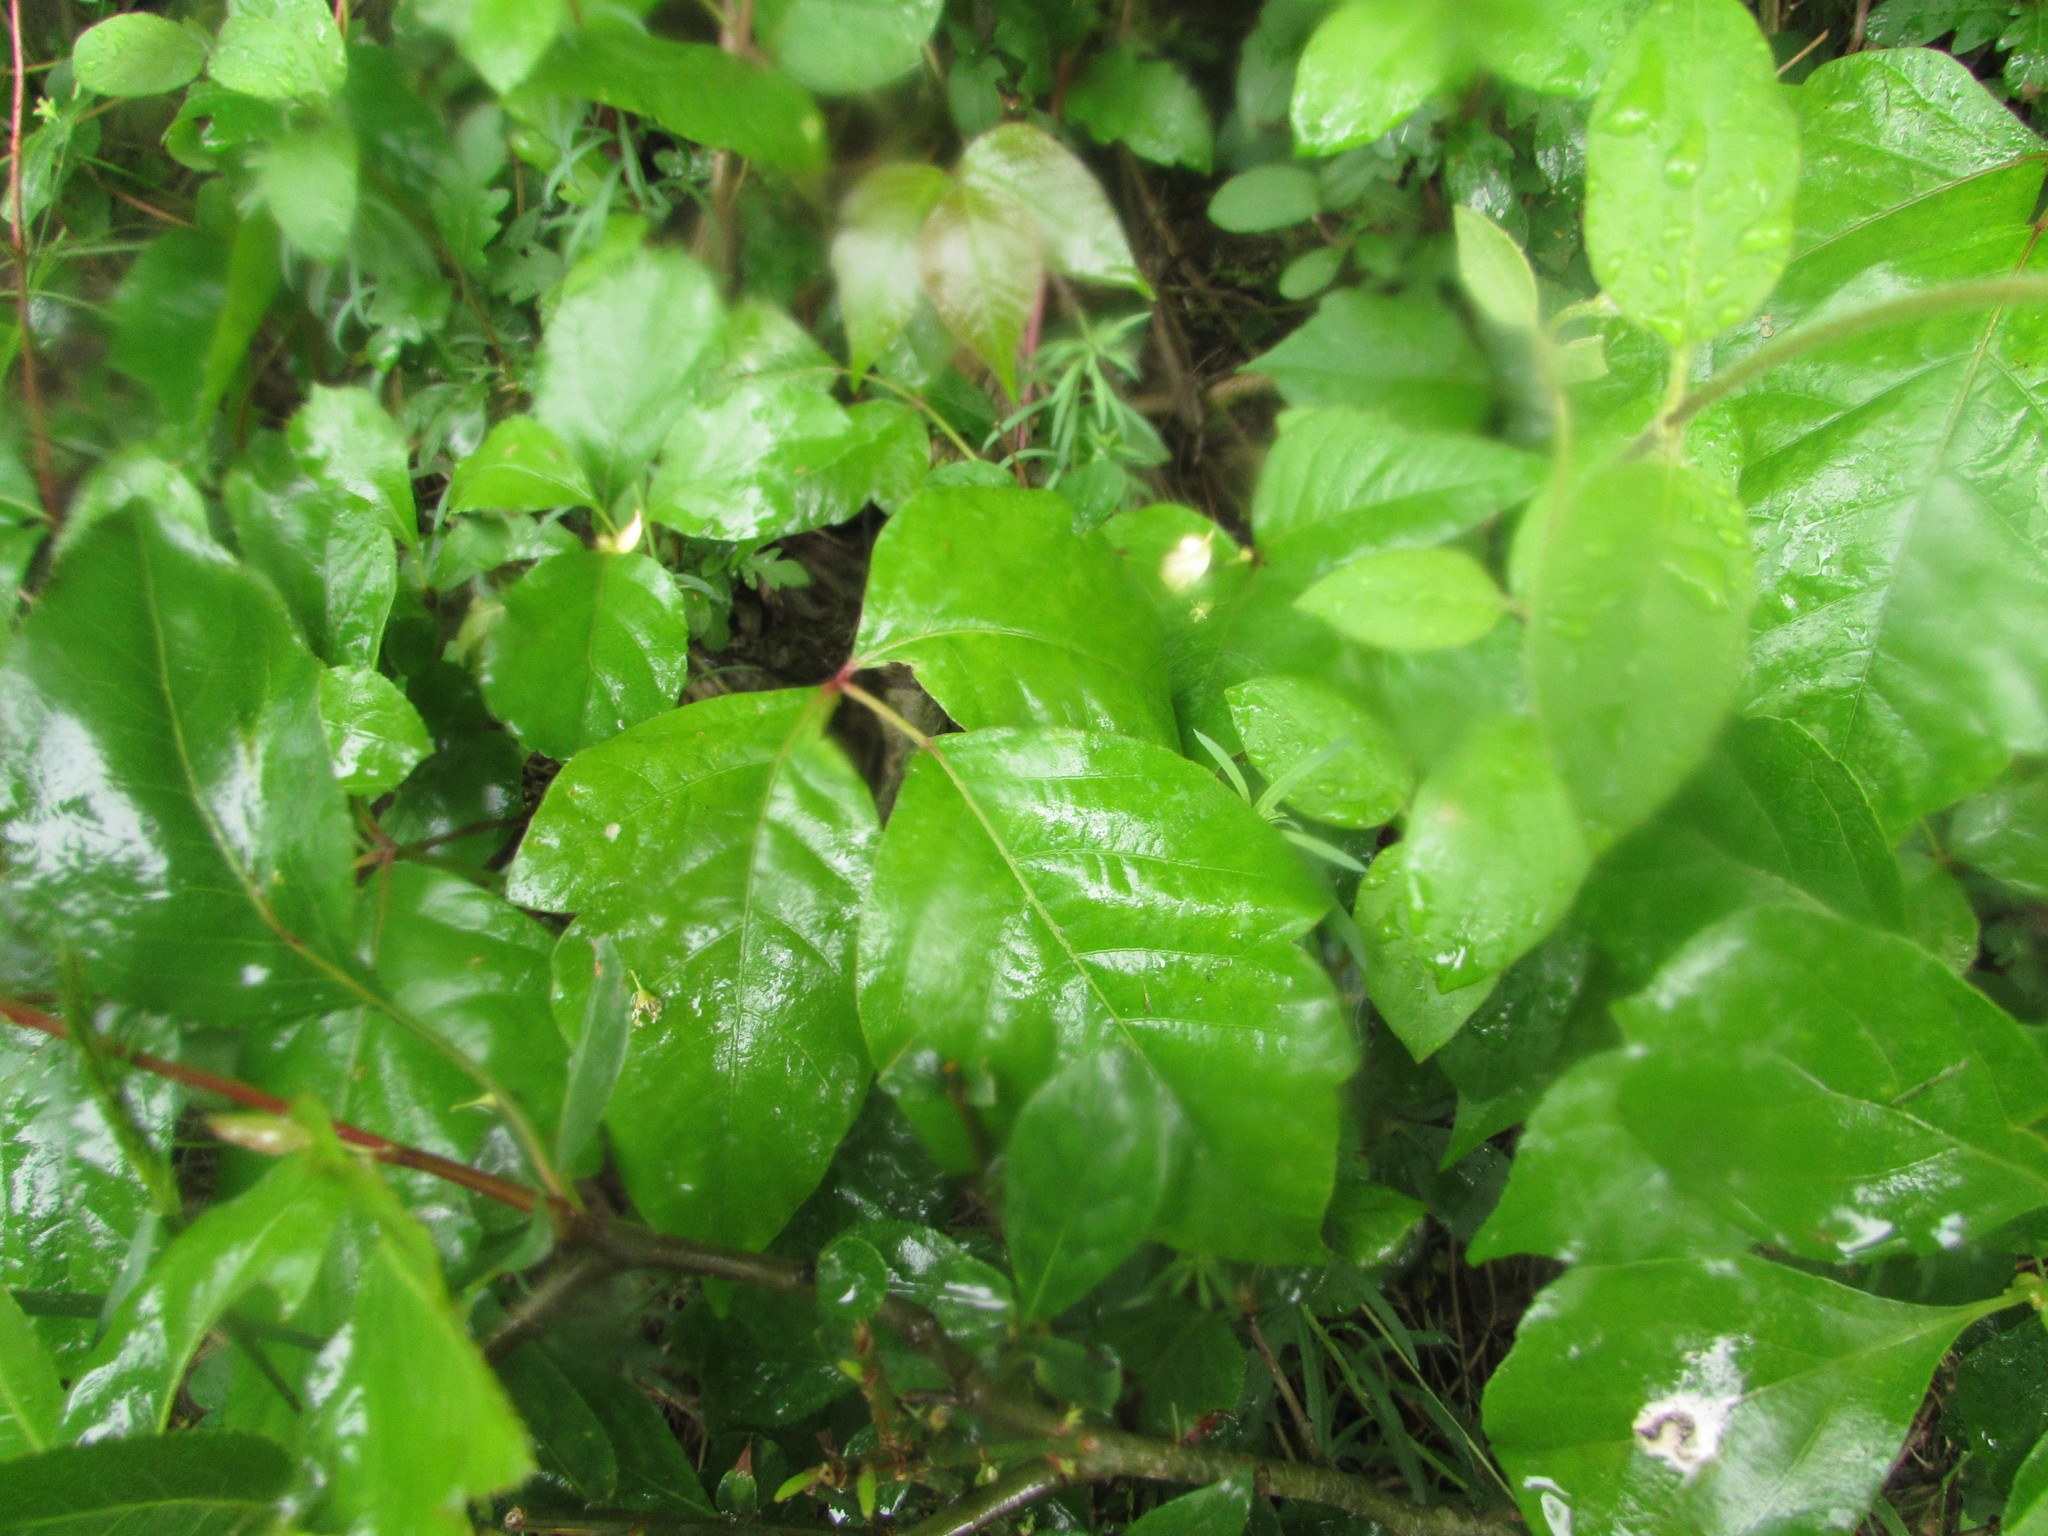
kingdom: Plantae
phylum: Tracheophyta
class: Magnoliopsida
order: Sapindales
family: Anacardiaceae
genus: Toxicodendron
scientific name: Toxicodendron radicans
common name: Poison ivy
